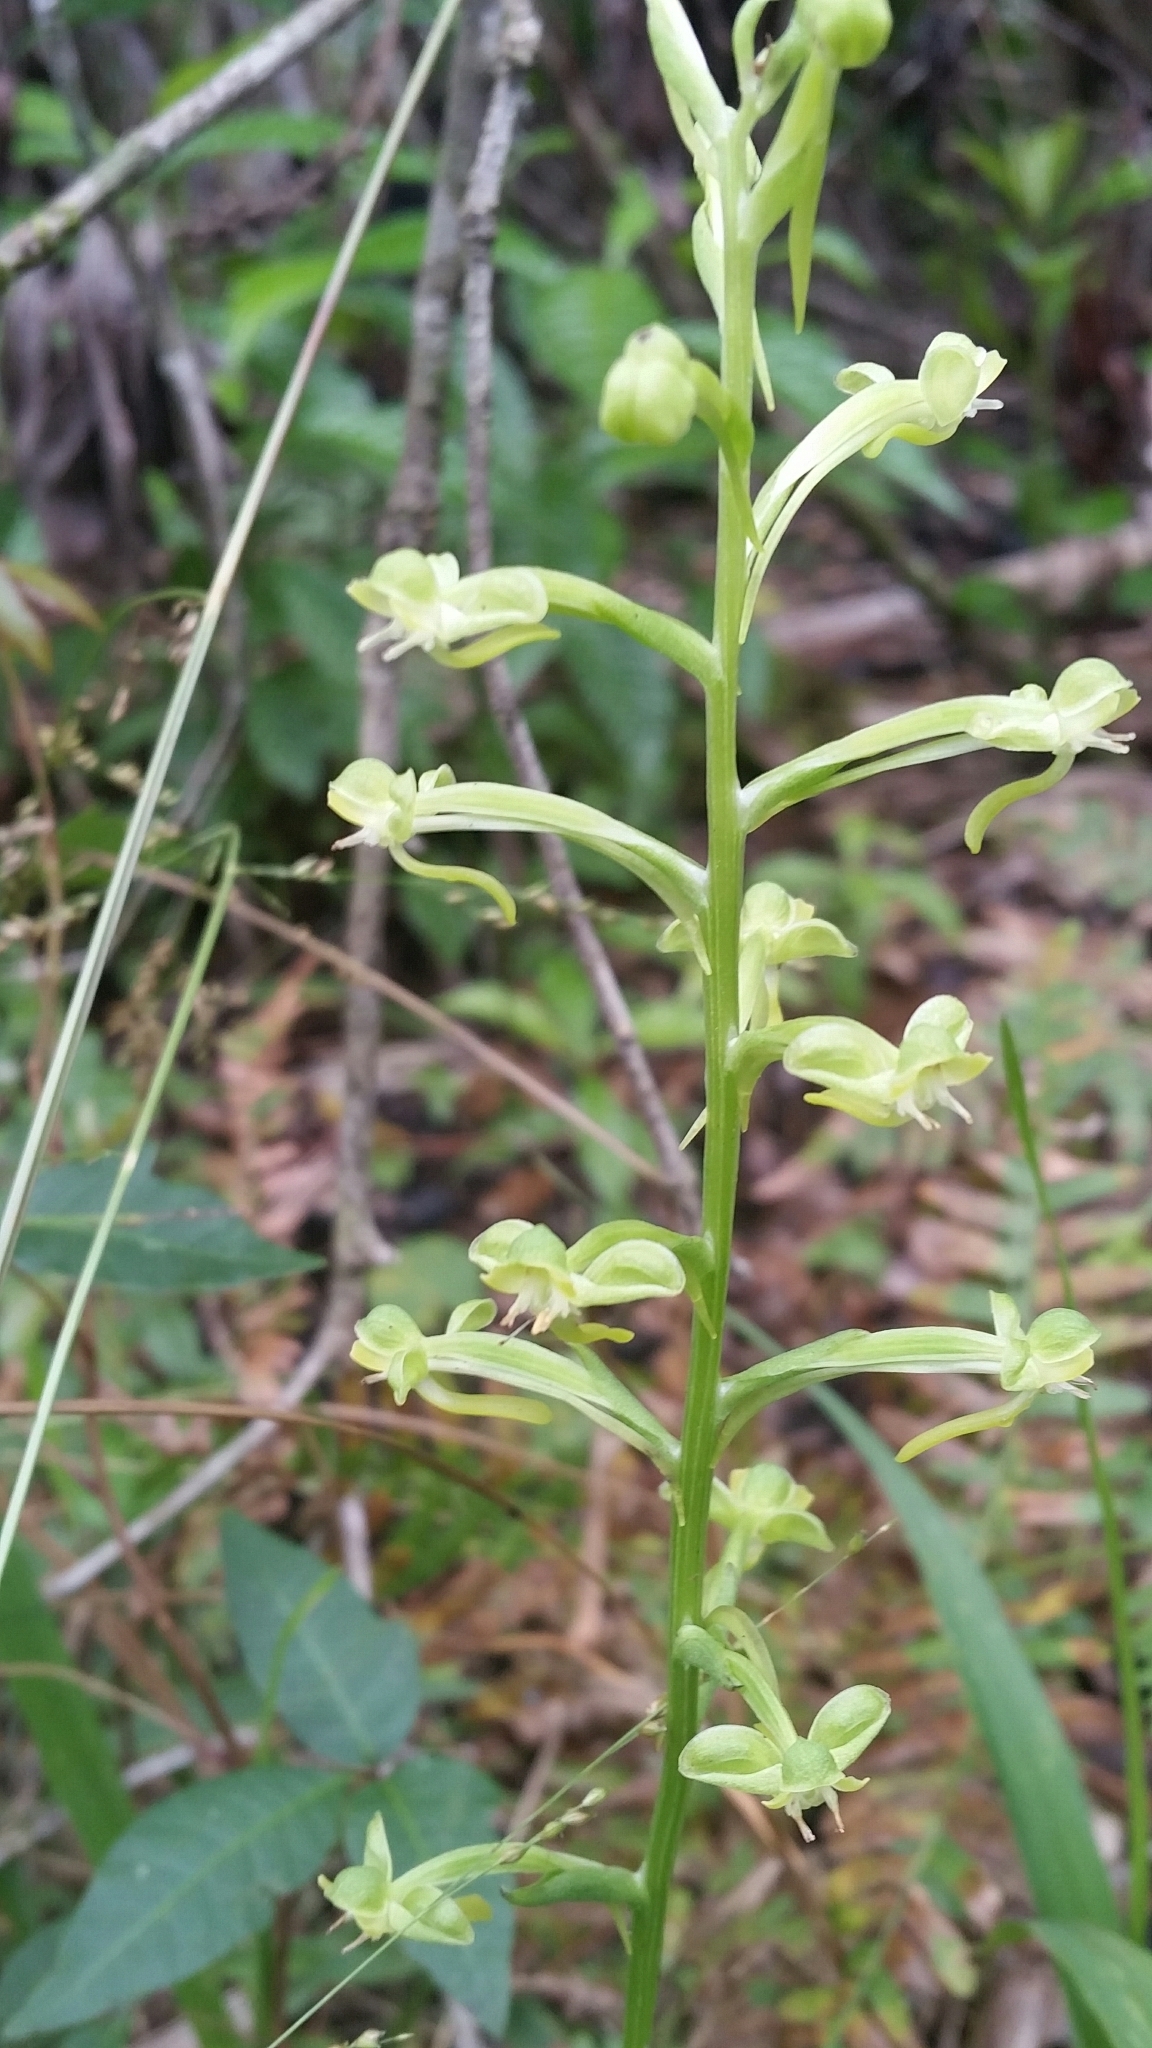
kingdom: Plantae
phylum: Tracheophyta
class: Liliopsida
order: Asparagales
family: Orchidaceae
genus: Habenaria
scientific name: Habenaria floribunda
